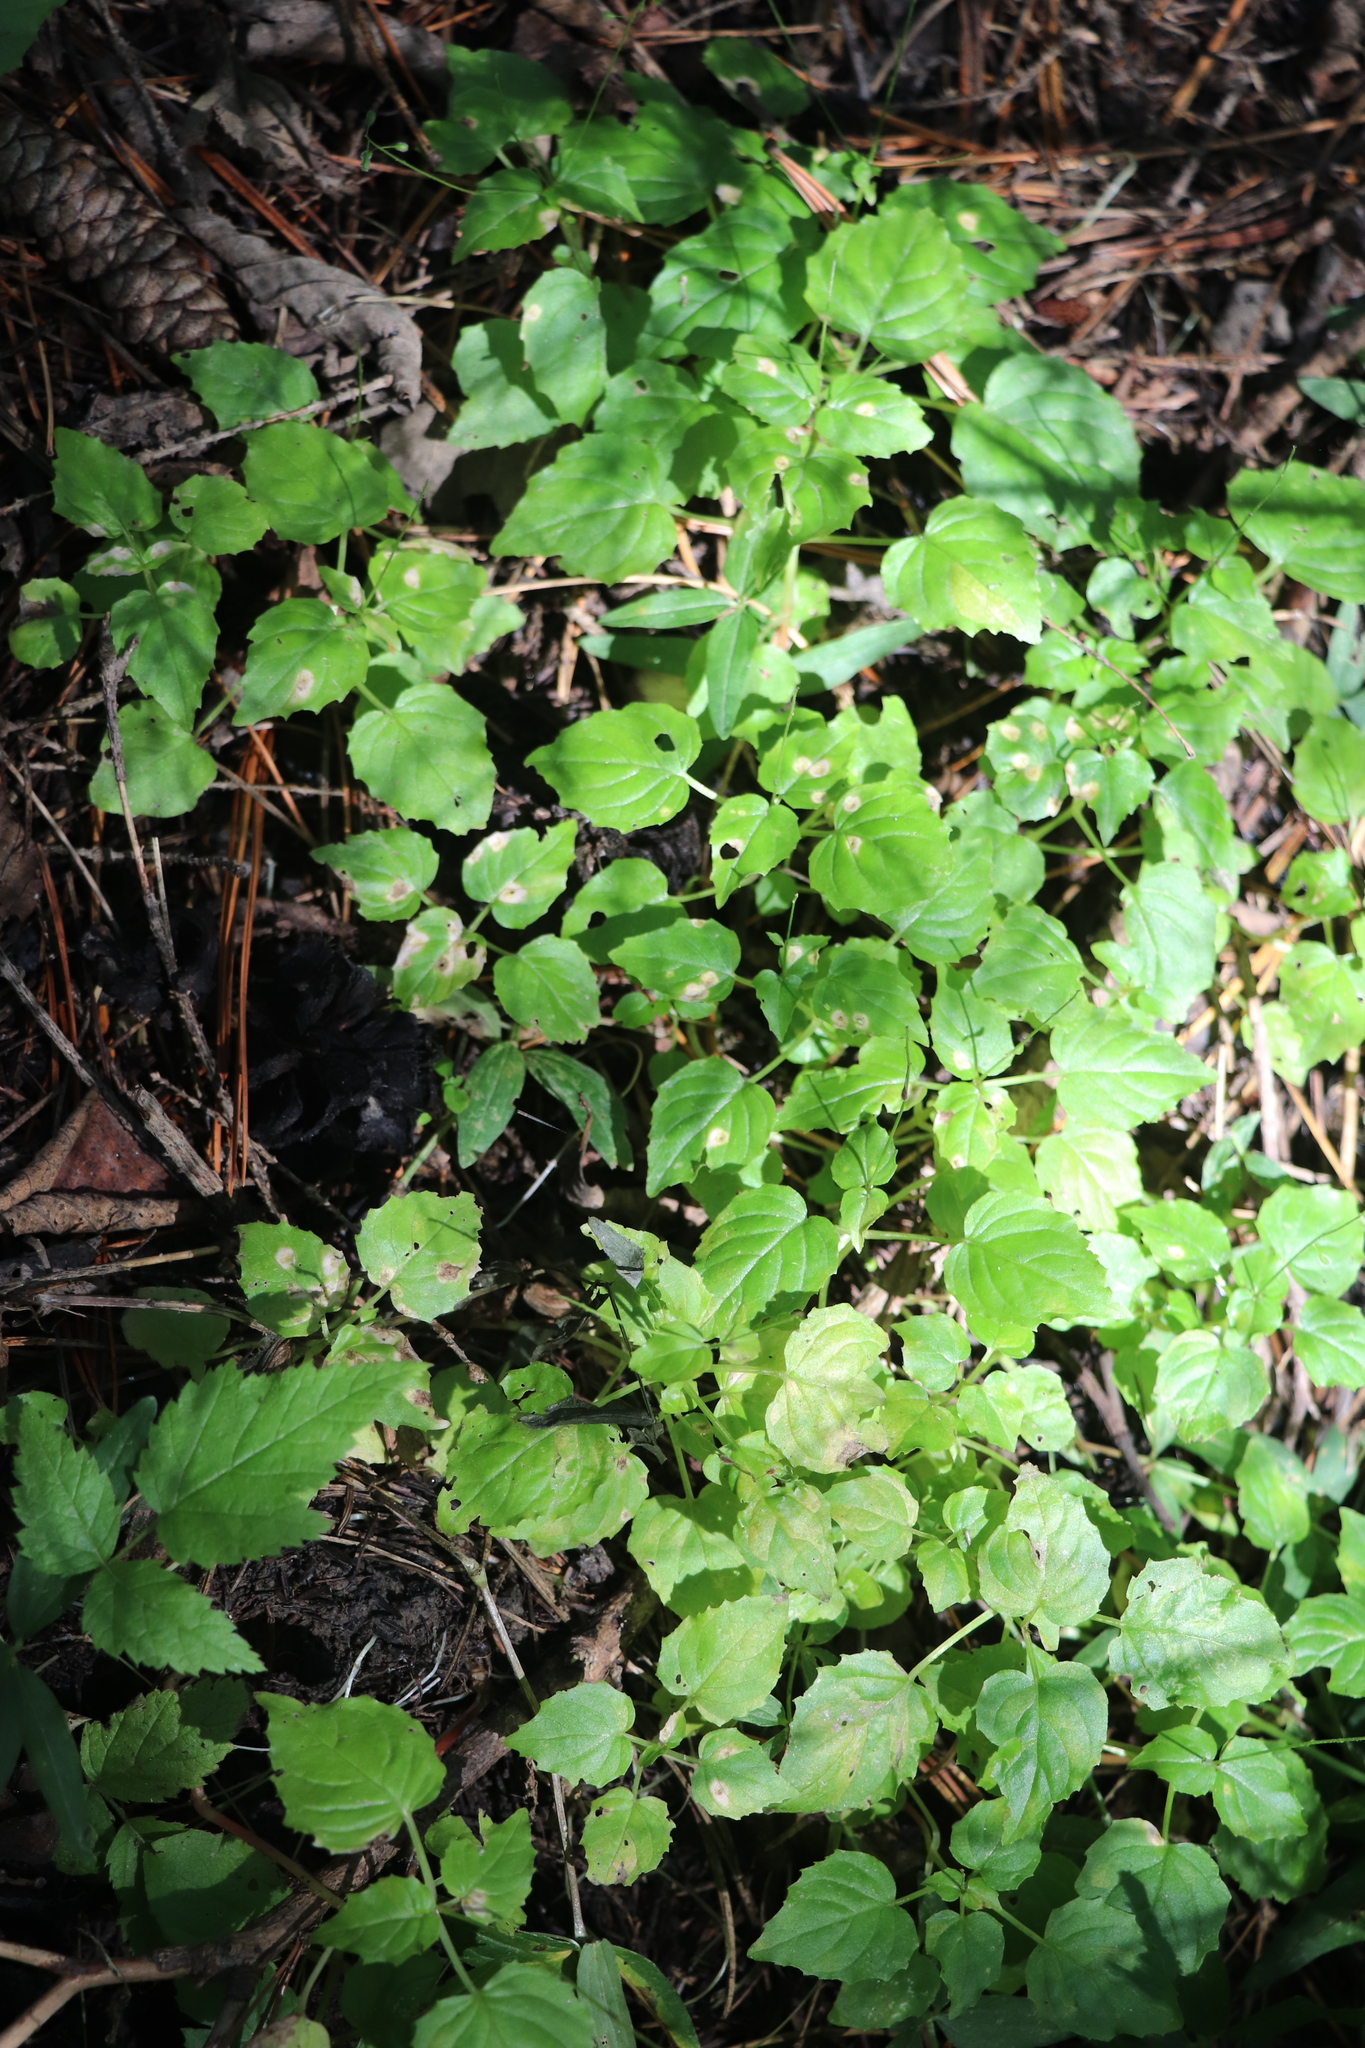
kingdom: Plantae
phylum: Tracheophyta
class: Magnoliopsida
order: Myrtales
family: Onagraceae
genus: Circaea
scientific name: Circaea alpina
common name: Alpine enchanter's-nightshade
